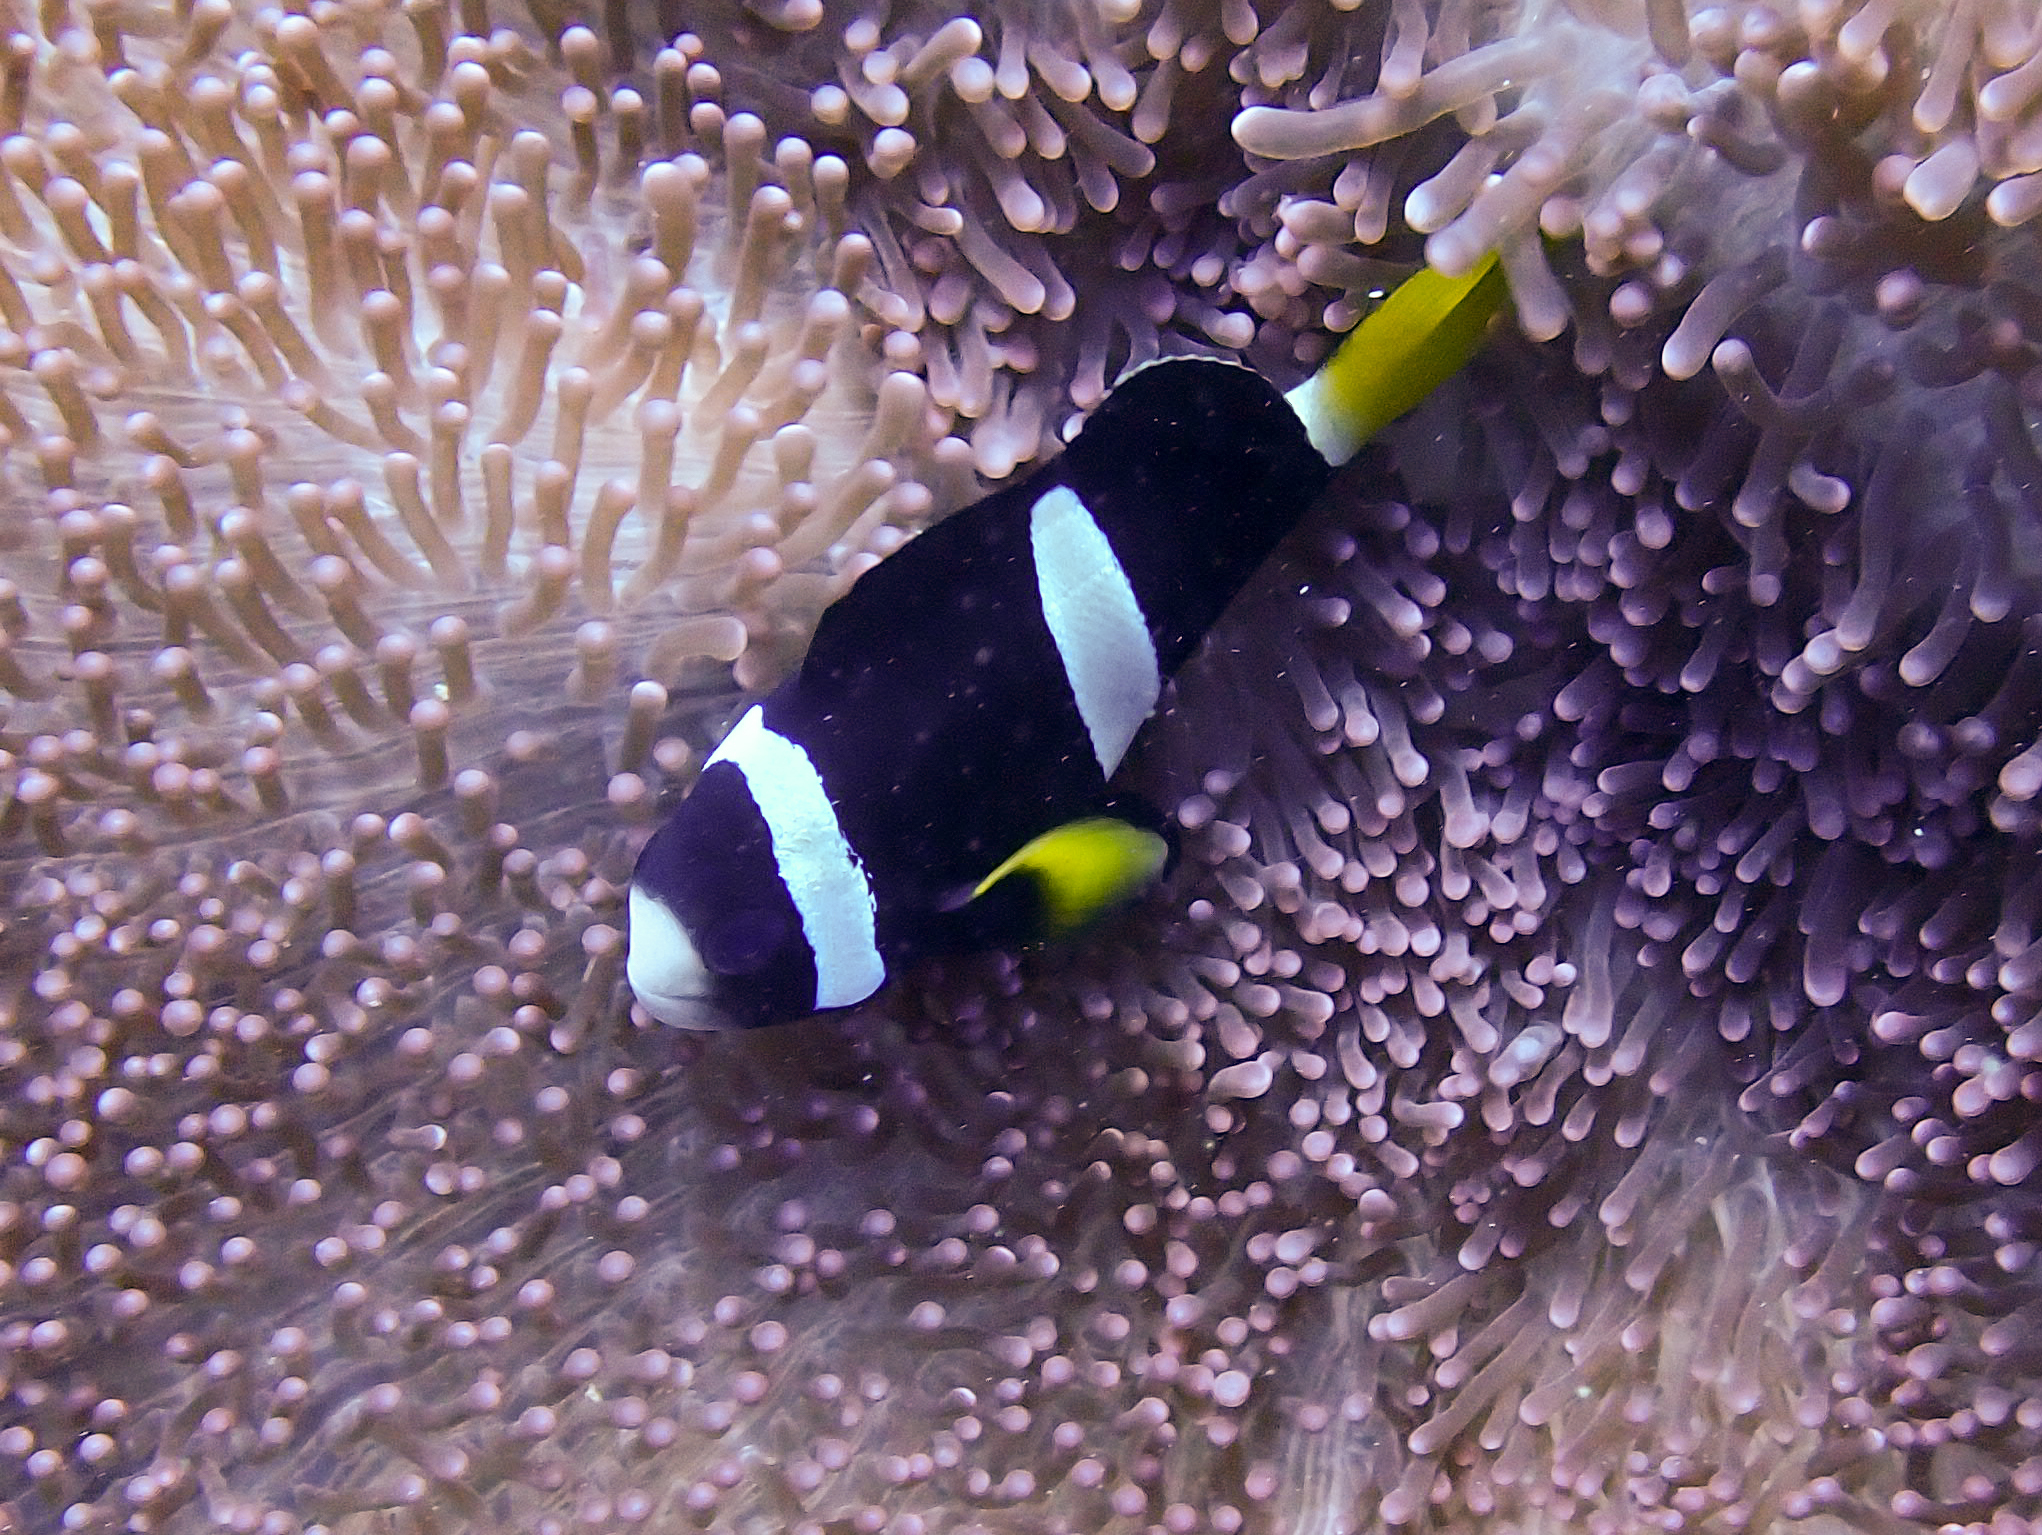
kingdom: Animalia
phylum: Chordata
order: Perciformes
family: Pomacentridae
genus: Amphiprion
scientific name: Amphiprion clarkii
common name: Clark's anemonefish
